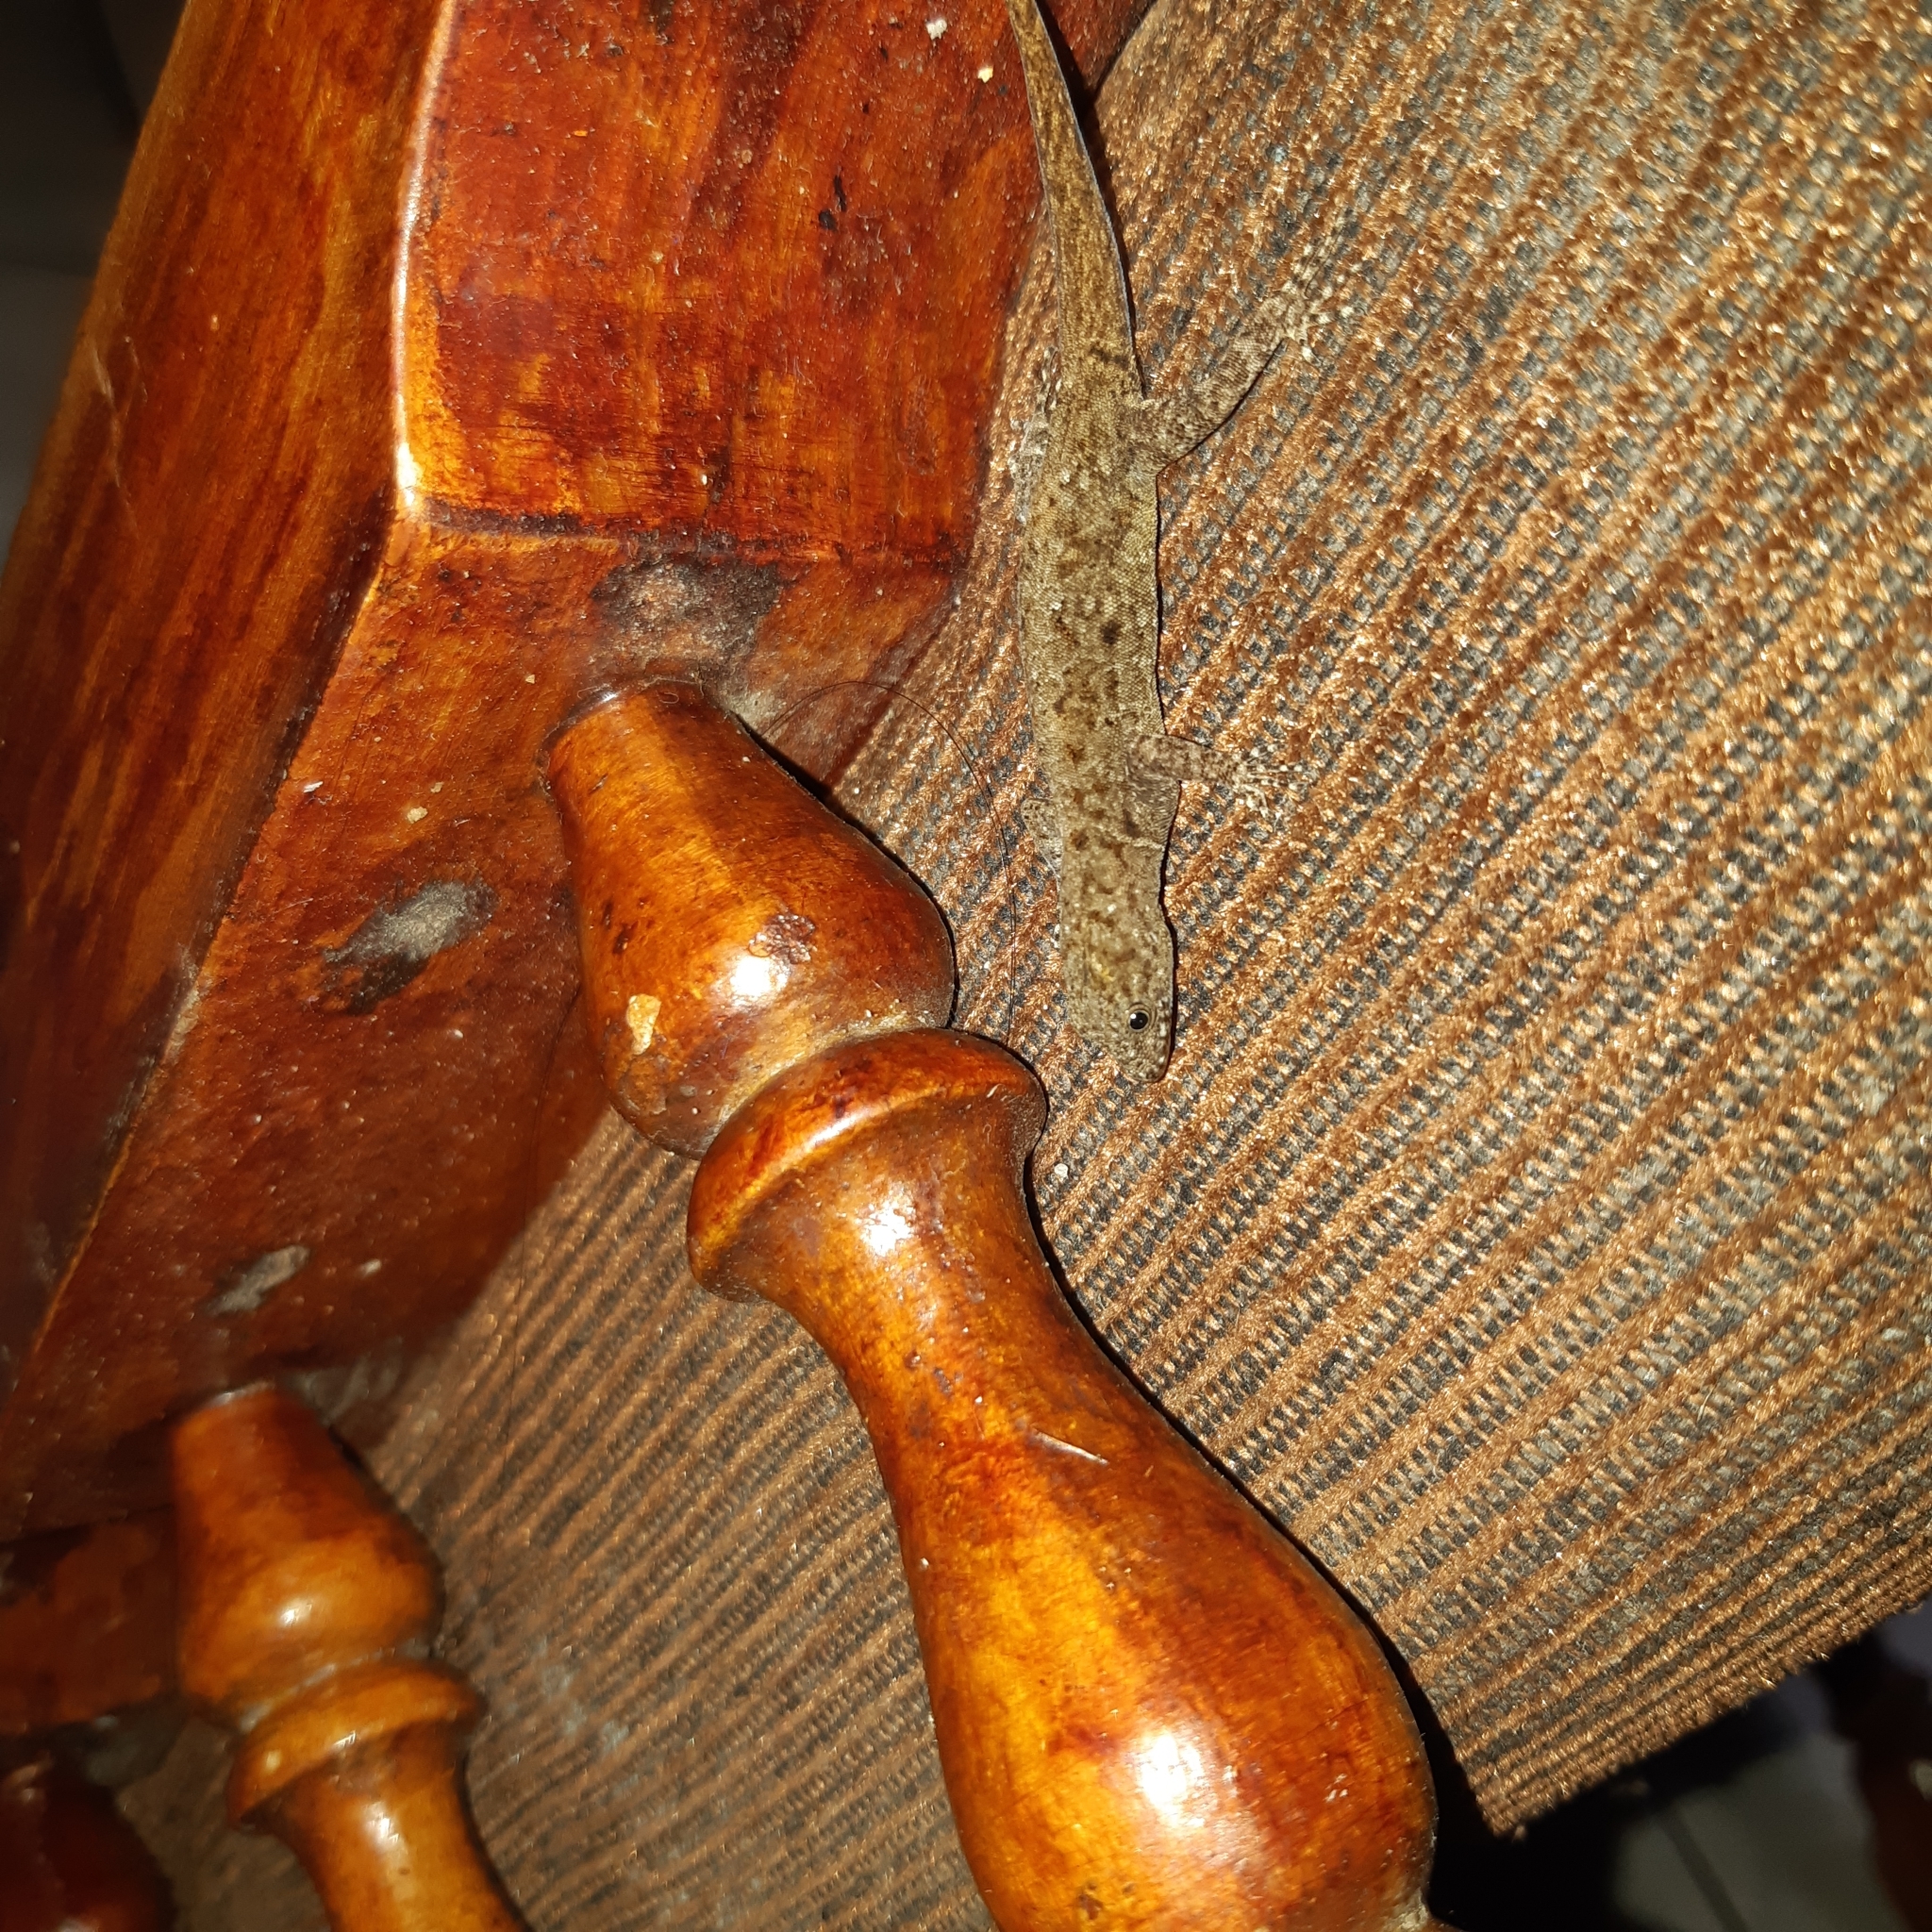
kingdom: Animalia
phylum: Chordata
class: Squamata
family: Sphaerodactylidae
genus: Gonatodes
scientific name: Gonatodes albogularis
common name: Yellow-headed gecko
